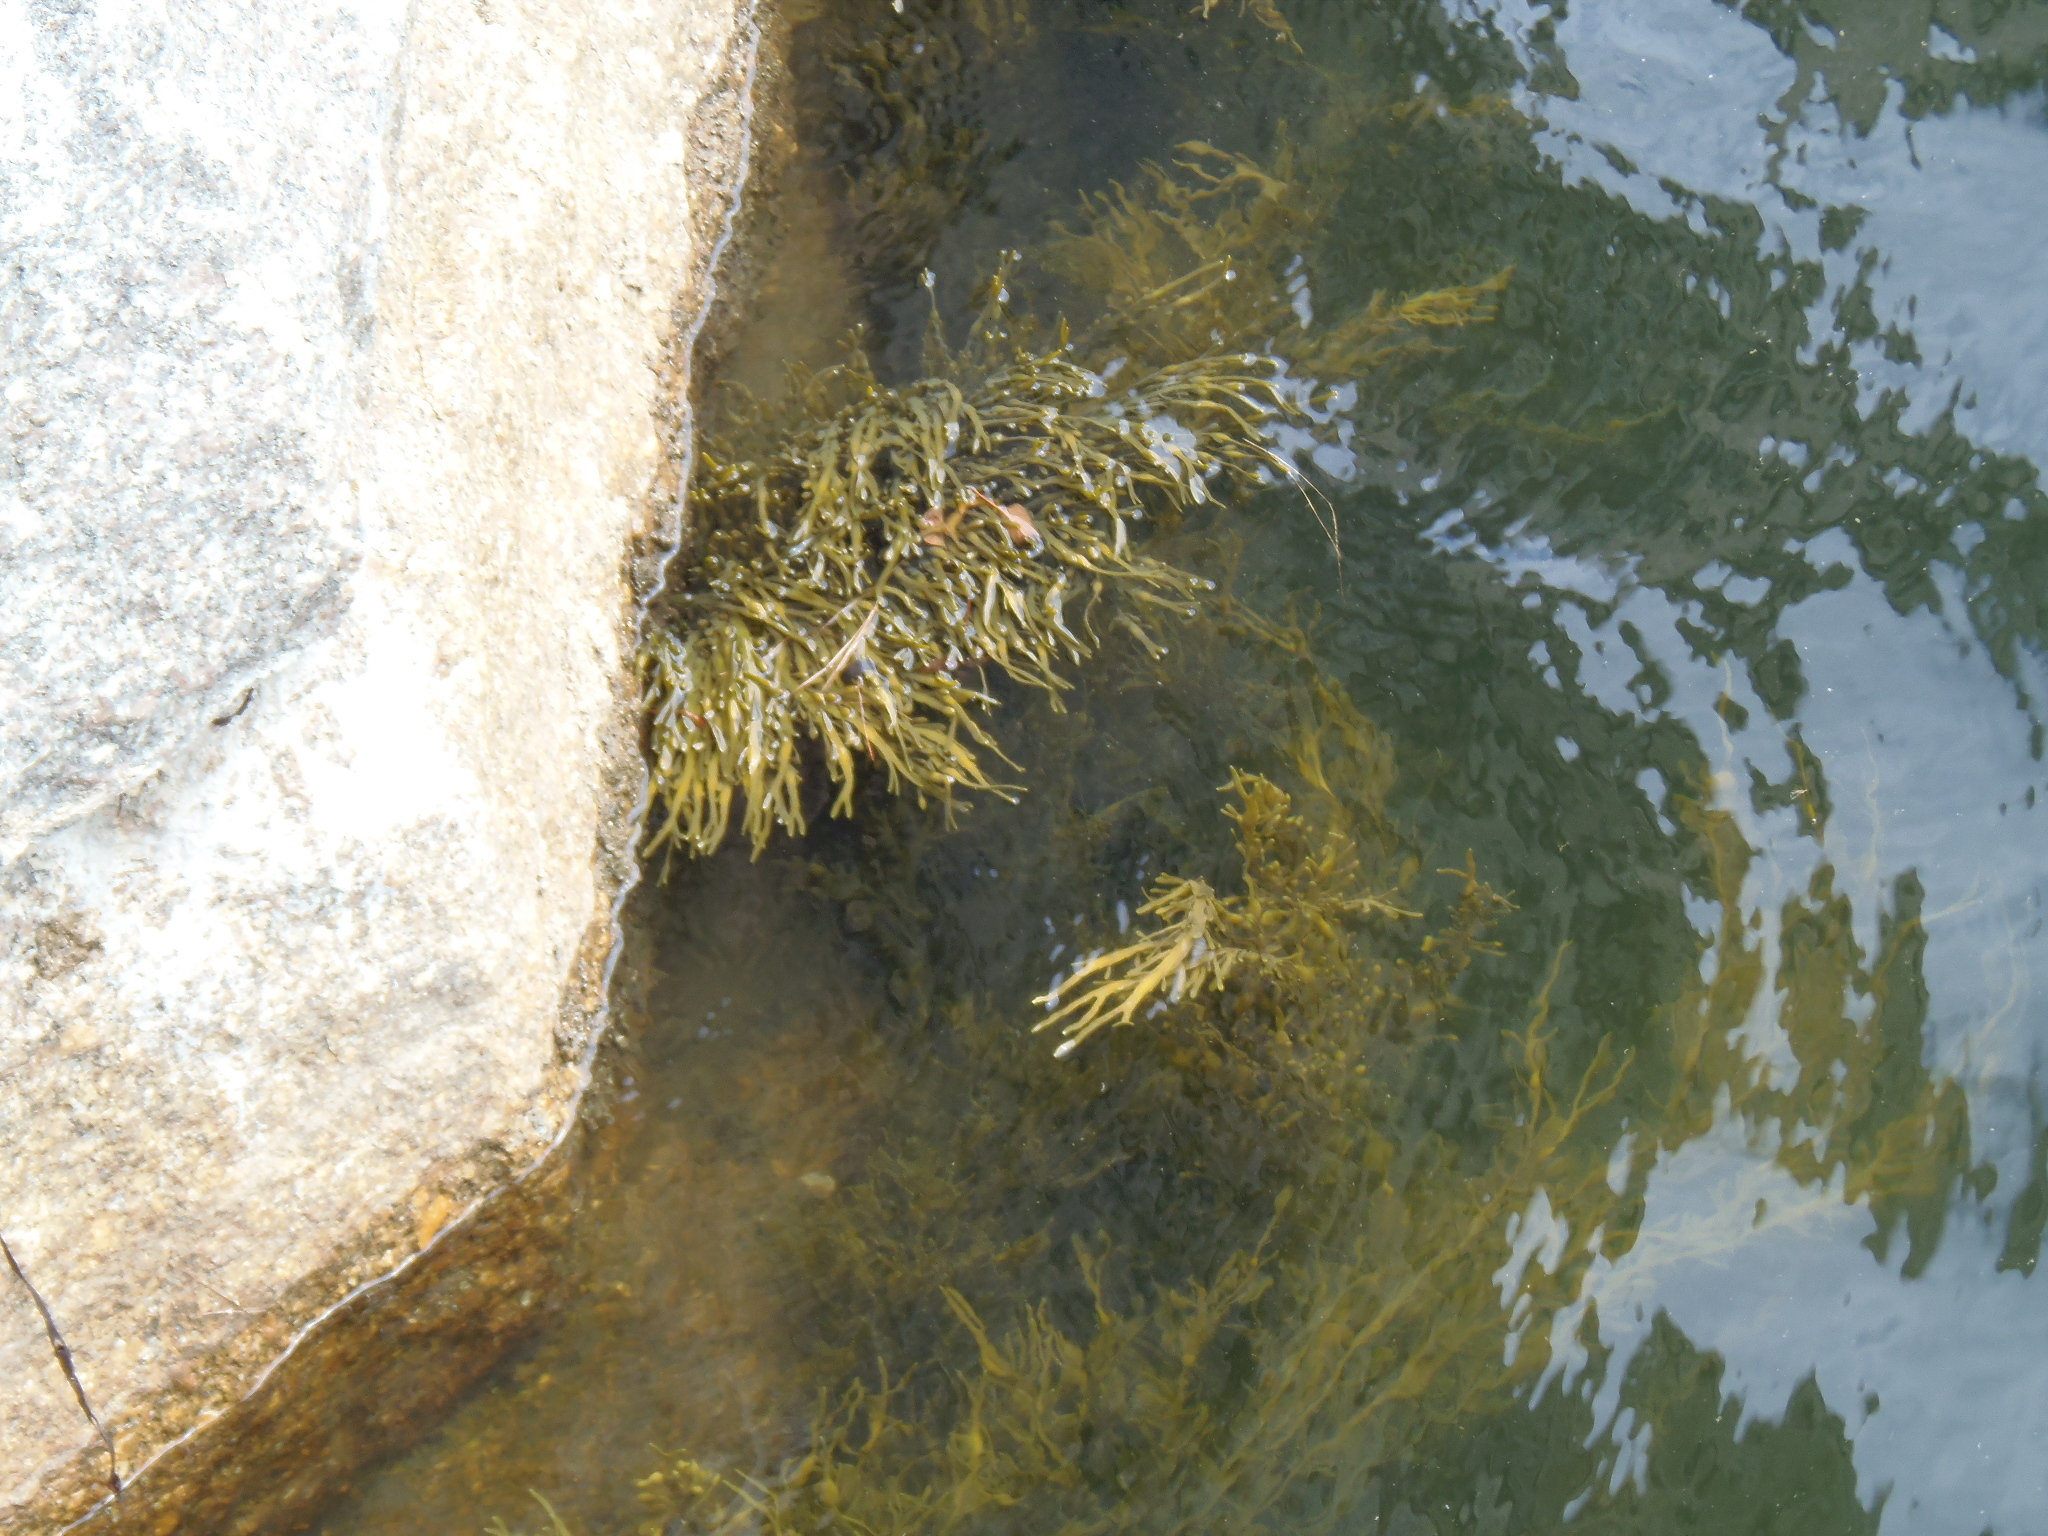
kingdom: Chromista
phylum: Ochrophyta
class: Phaeophyceae
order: Fucales
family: Fucaceae
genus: Ascophyllum
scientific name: Ascophyllum nodosum
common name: Knotted wrack
